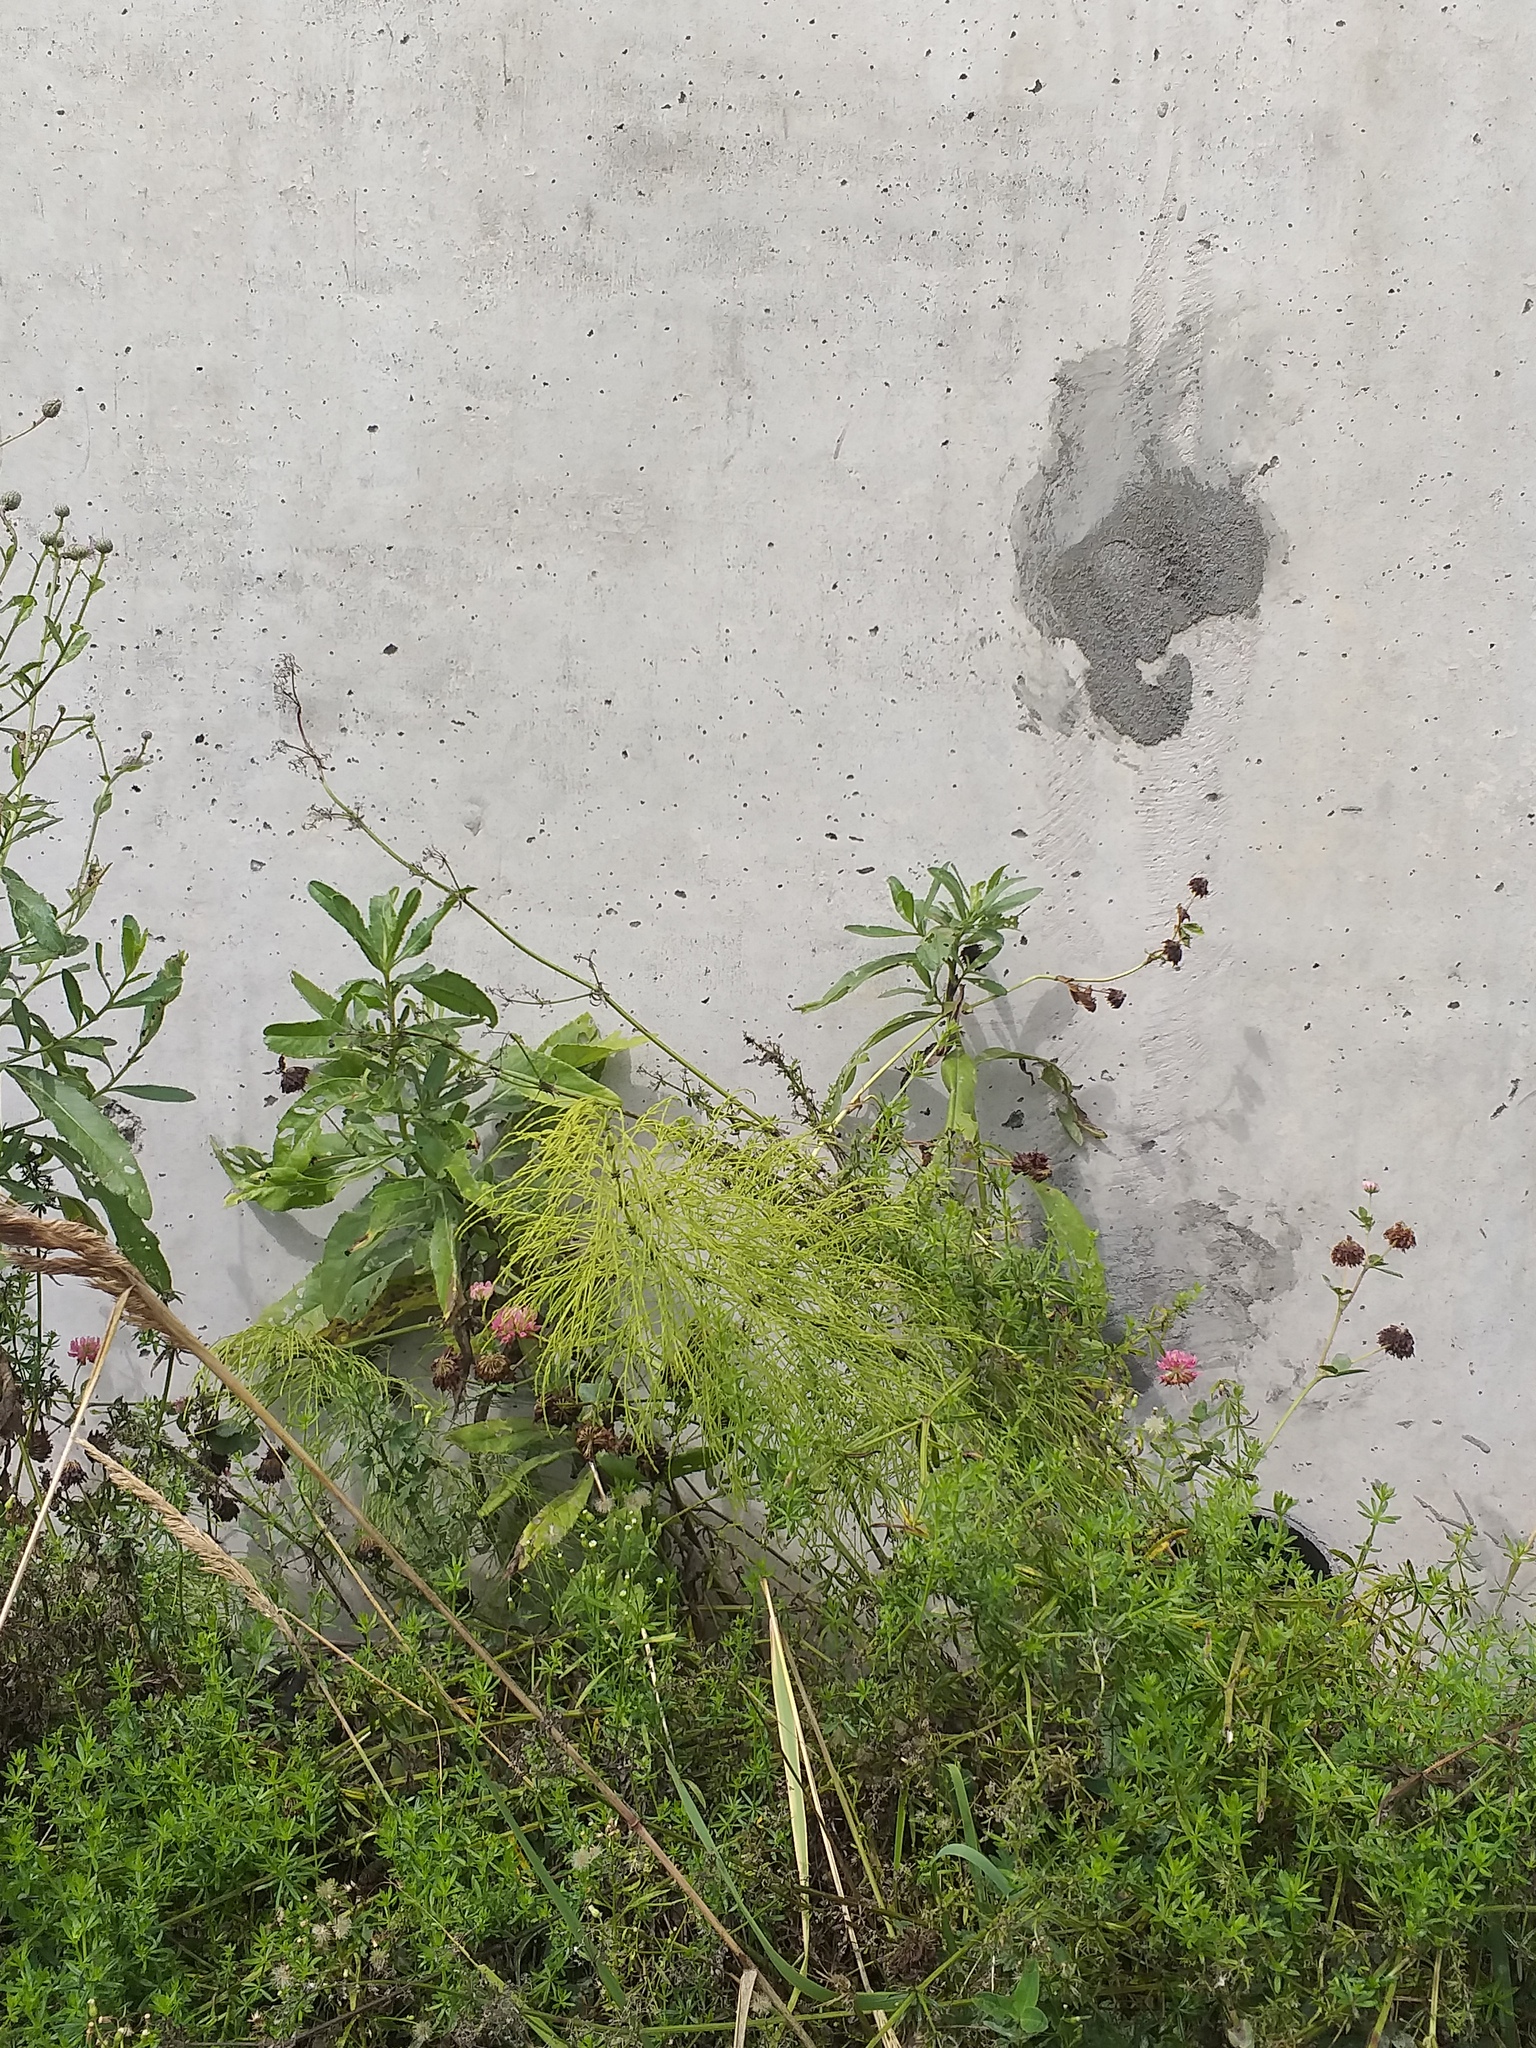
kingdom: Plantae
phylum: Tracheophyta
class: Polypodiopsida
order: Equisetales
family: Equisetaceae
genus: Equisetum
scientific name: Equisetum sylvaticum
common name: Wood horsetail
